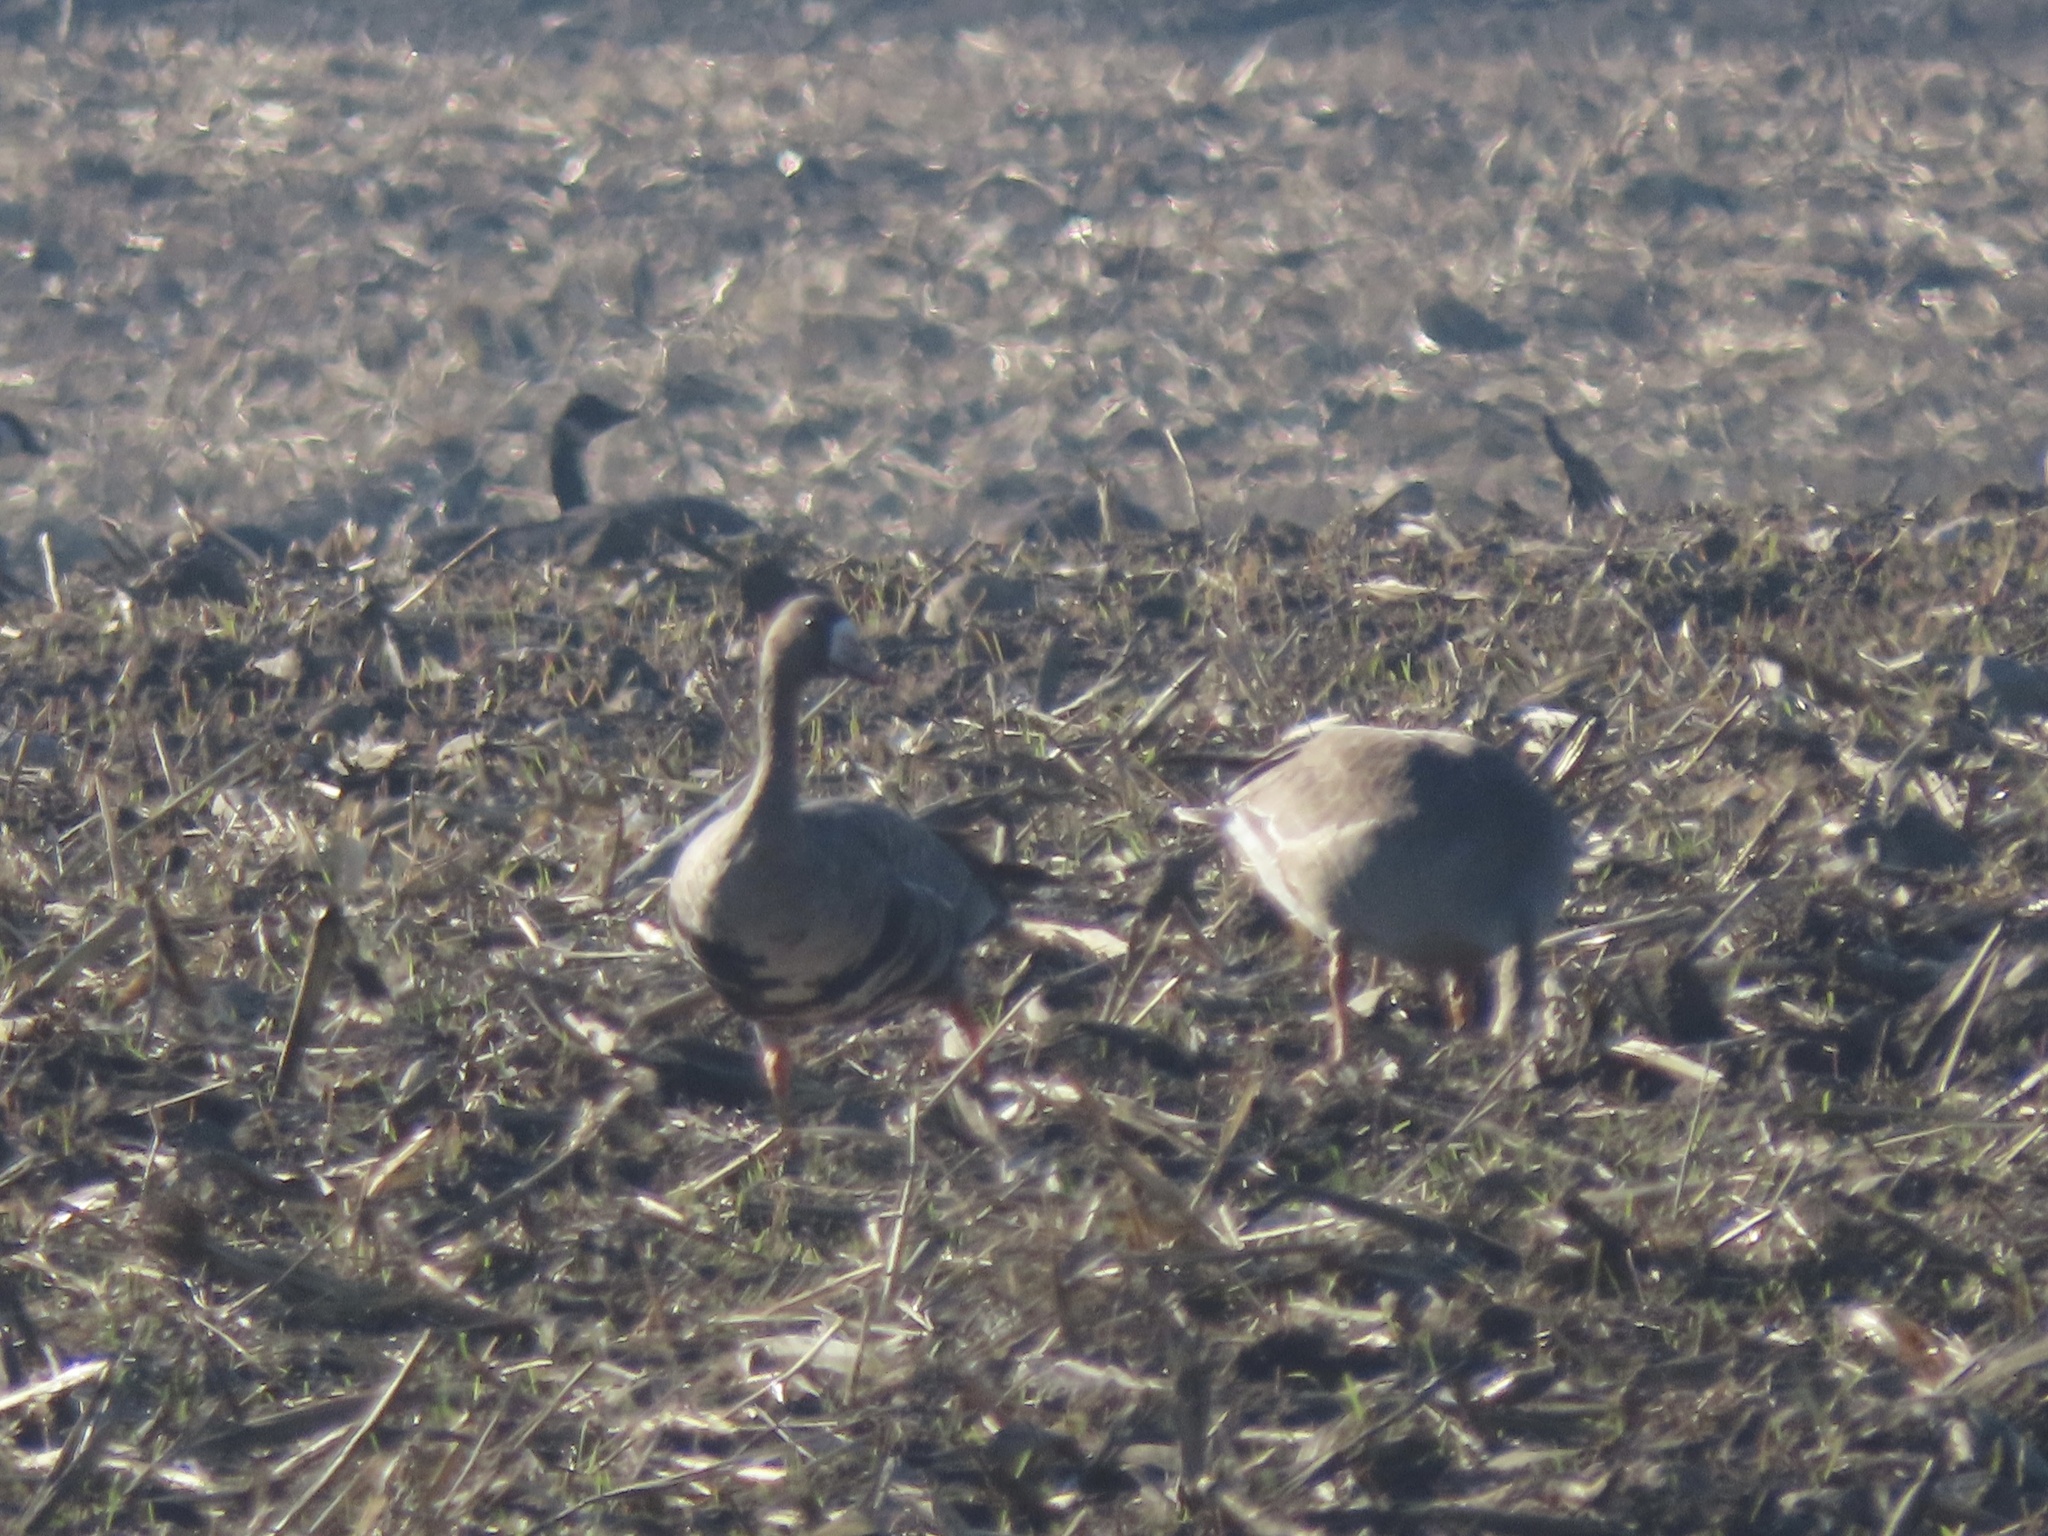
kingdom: Animalia
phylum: Chordata
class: Aves
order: Anseriformes
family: Anatidae
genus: Anser
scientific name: Anser albifrons
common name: Greater white-fronted goose
